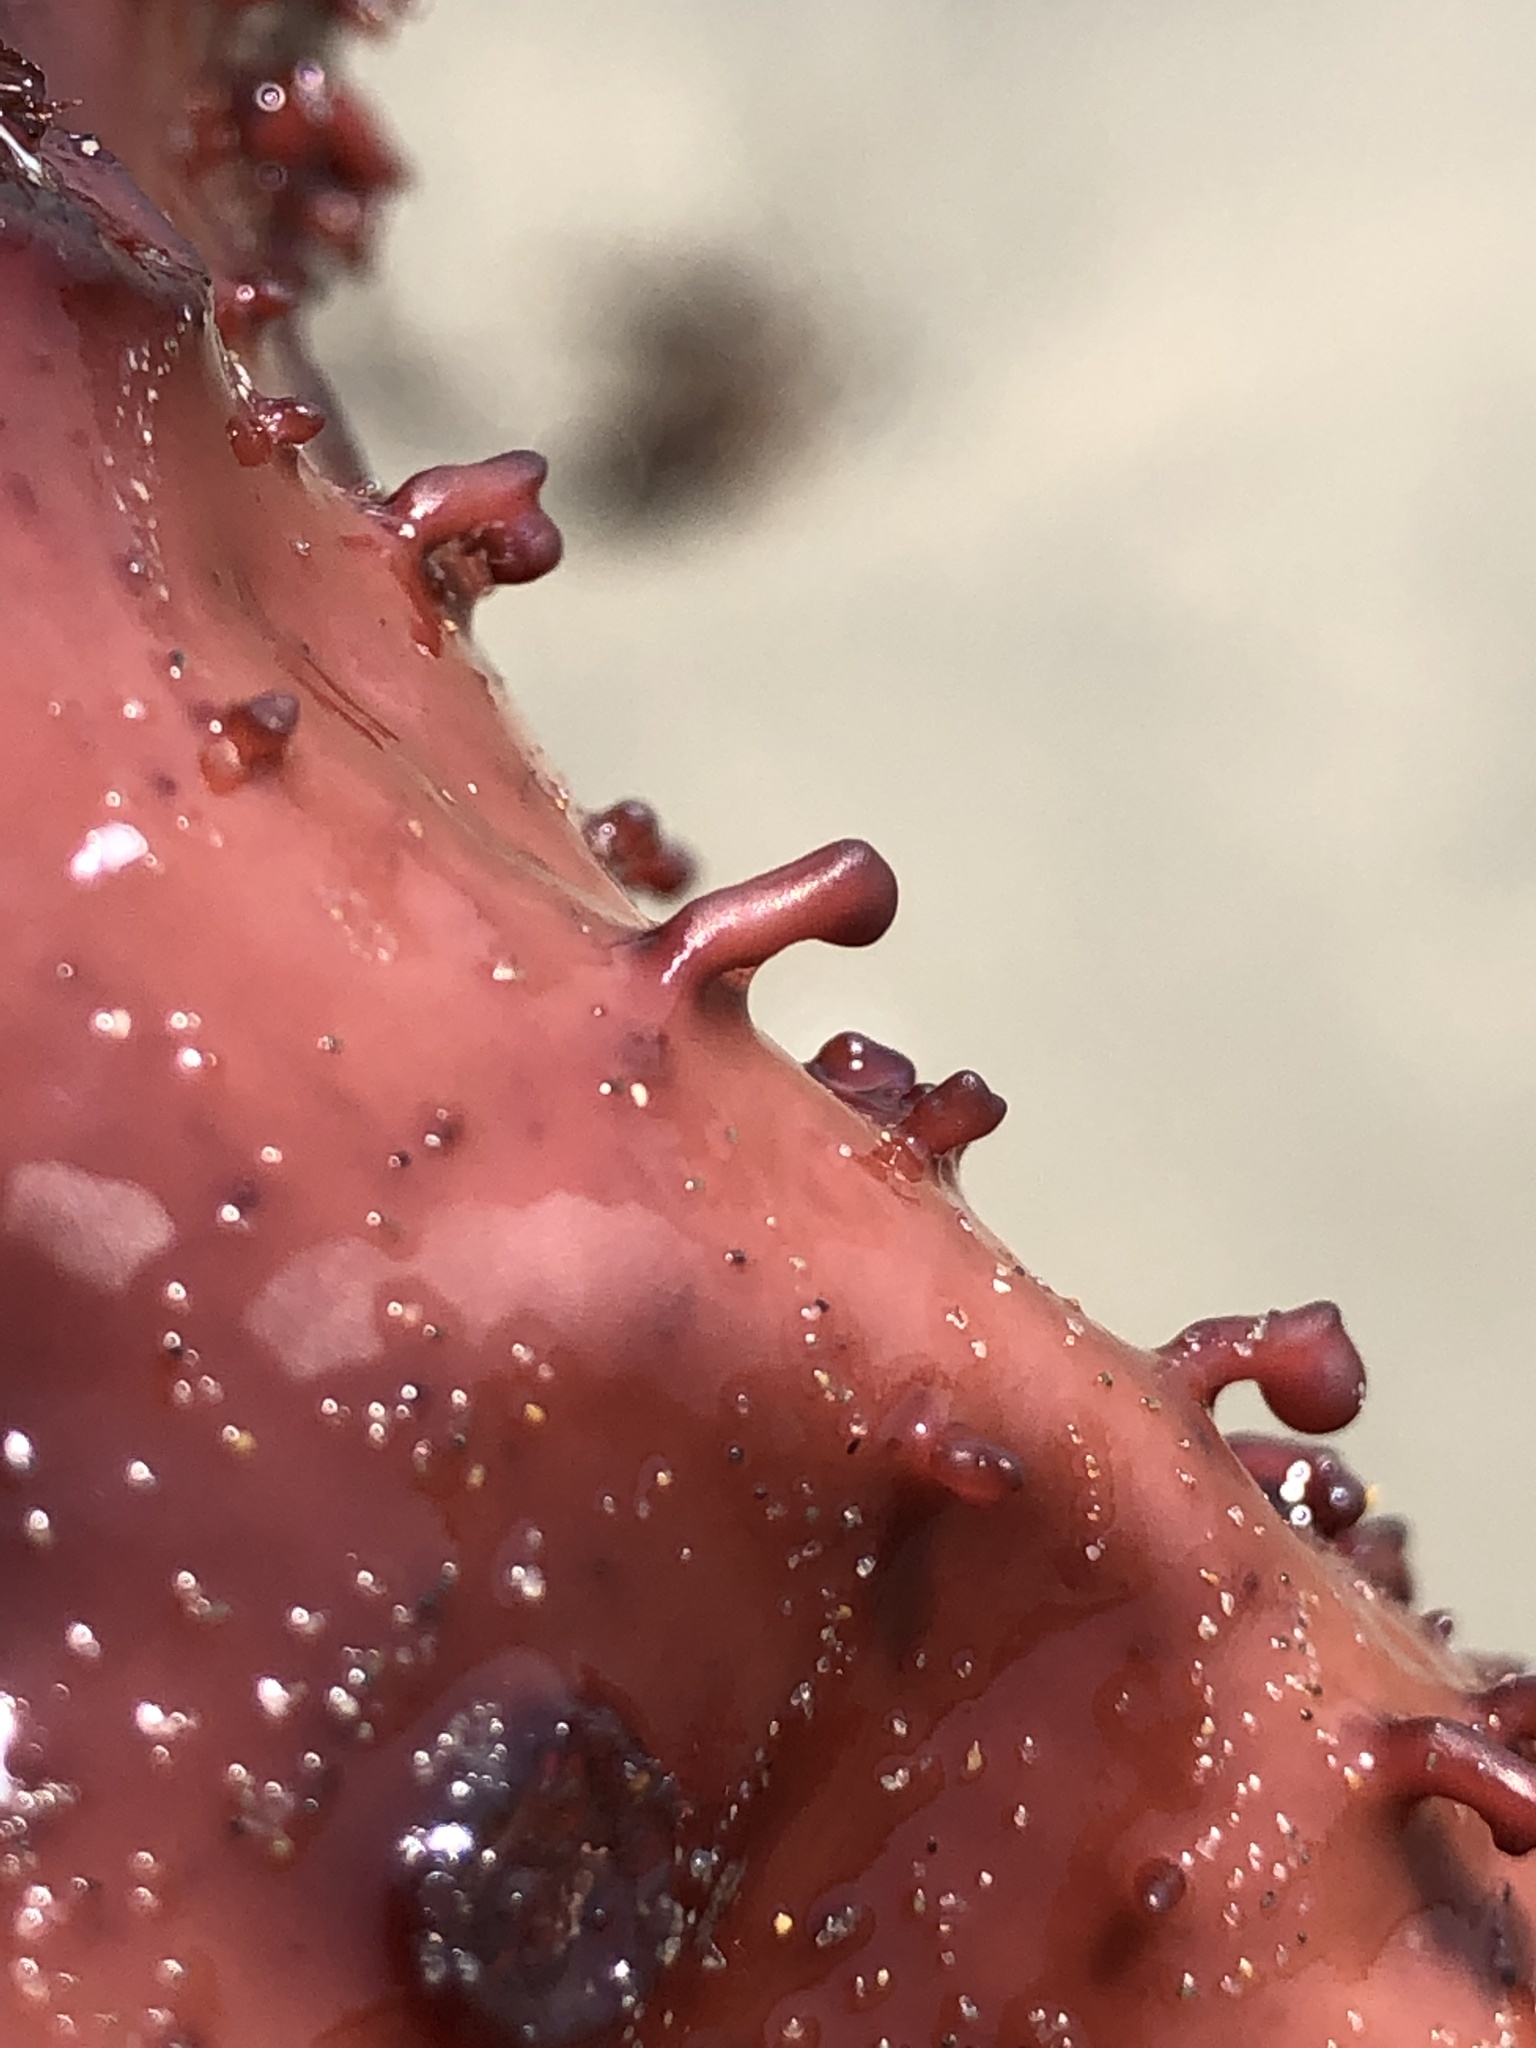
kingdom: Plantae
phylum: Rhodophyta
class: Florideophyceae
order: Gigartinales
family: Gigartinaceae
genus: Chondracanthus
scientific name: Chondracanthus corymbiferus
